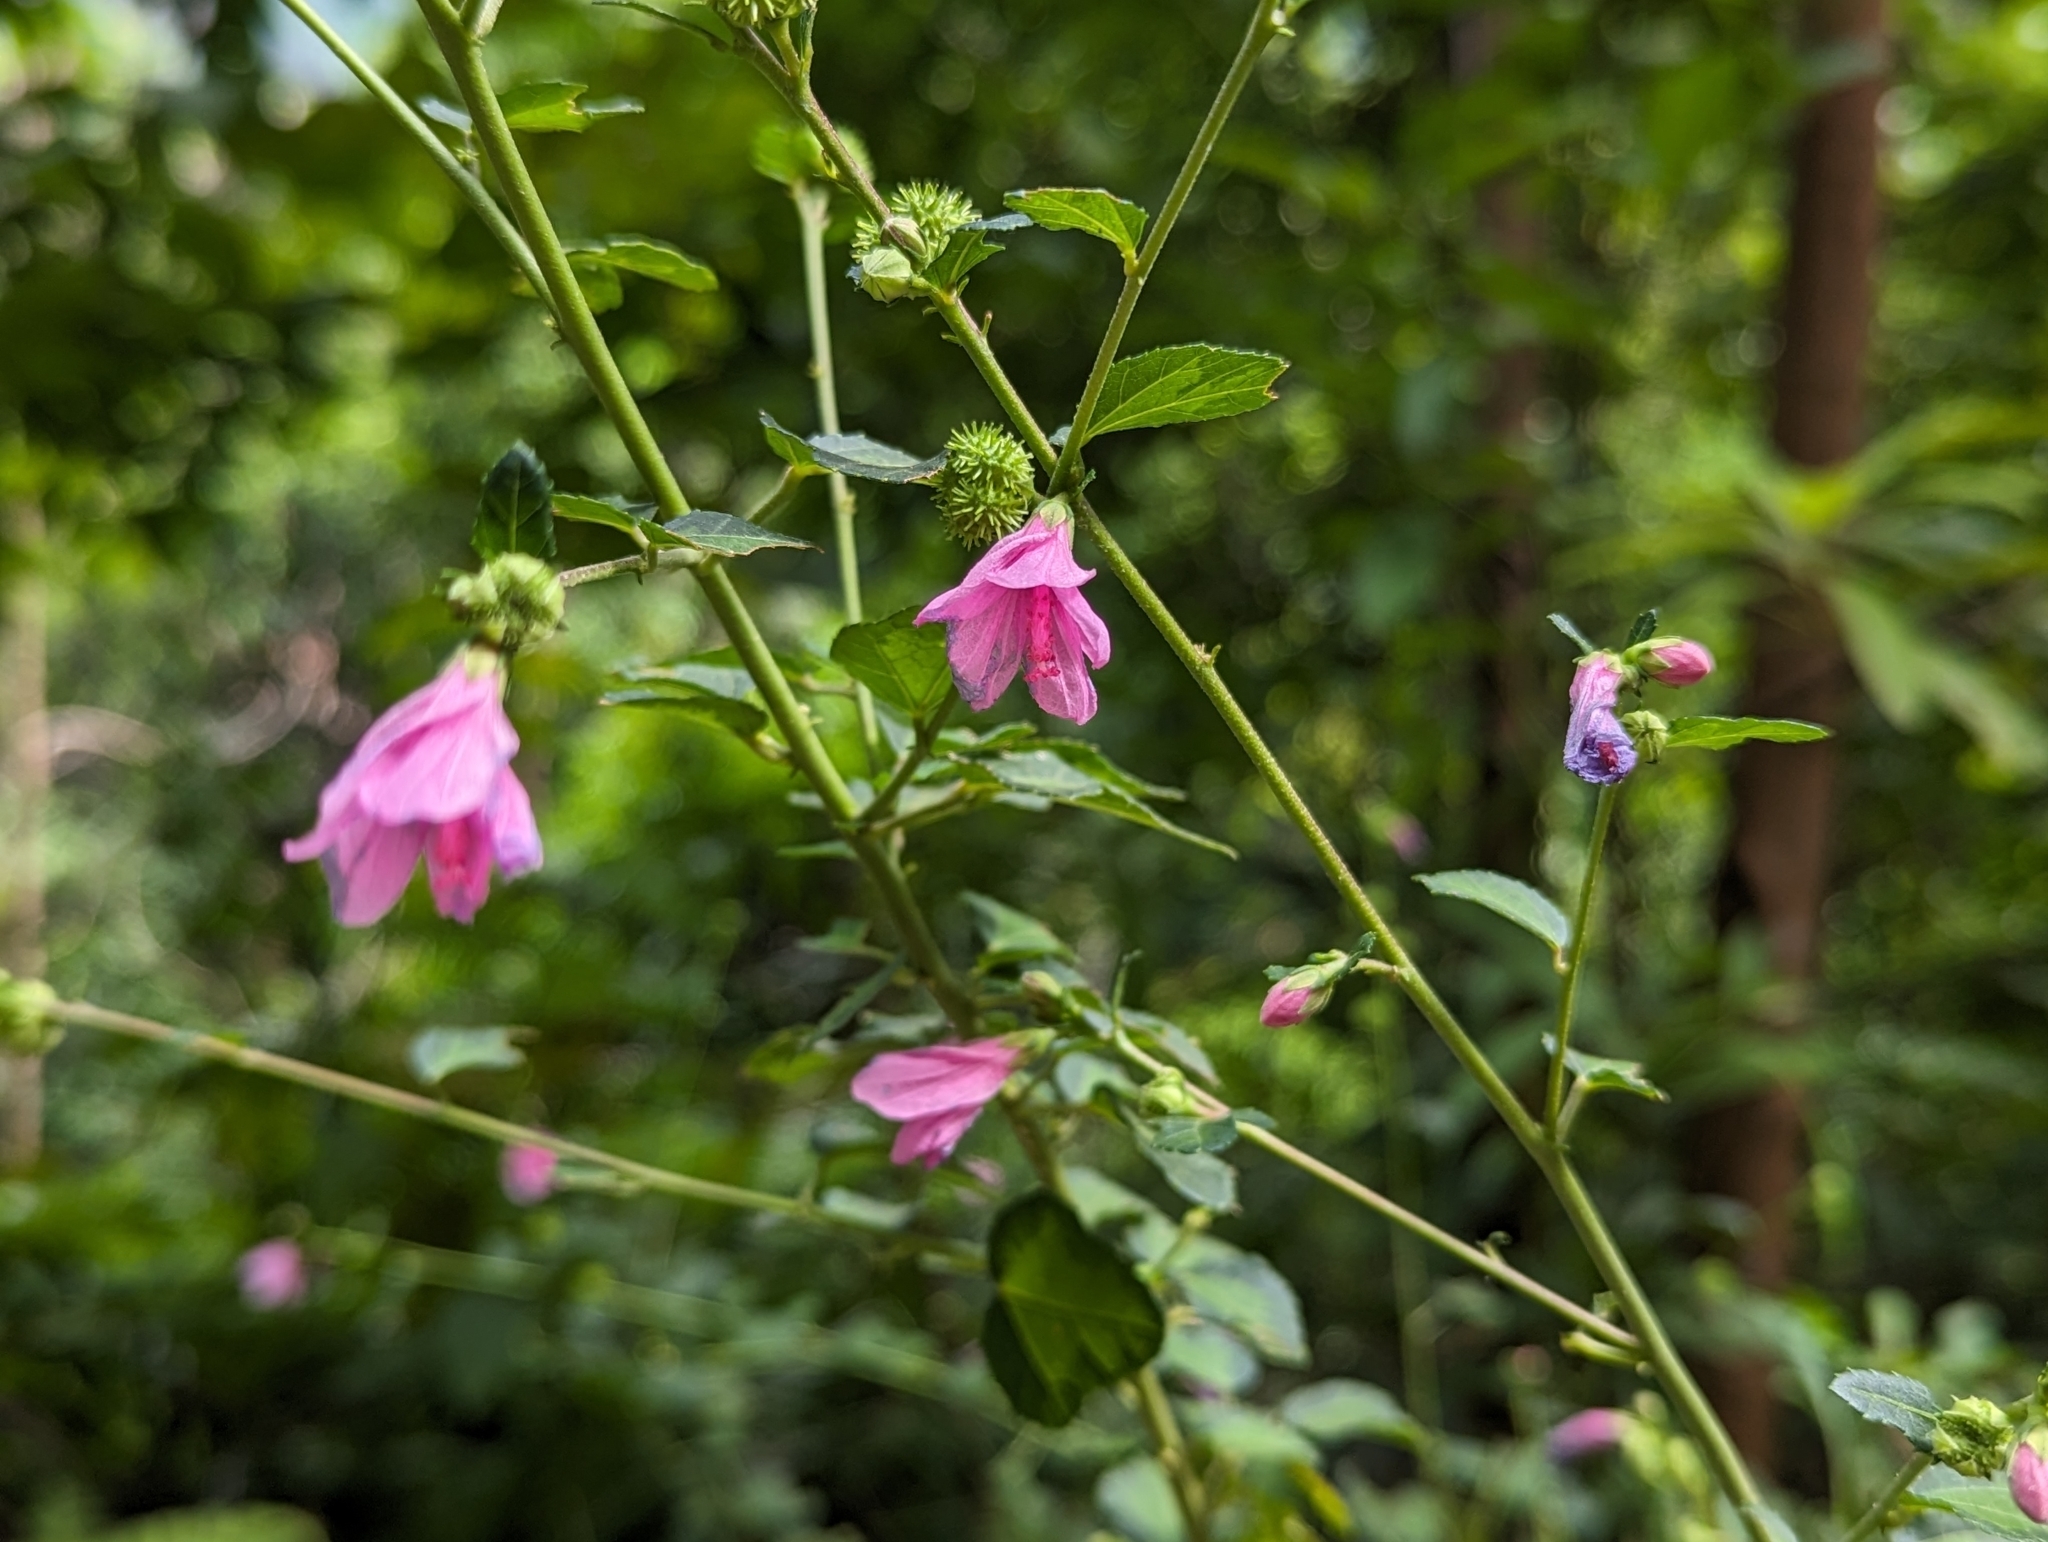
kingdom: Plantae
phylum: Tracheophyta
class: Magnoliopsida
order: Malvales
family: Malvaceae
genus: Urena
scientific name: Urena procumbens
